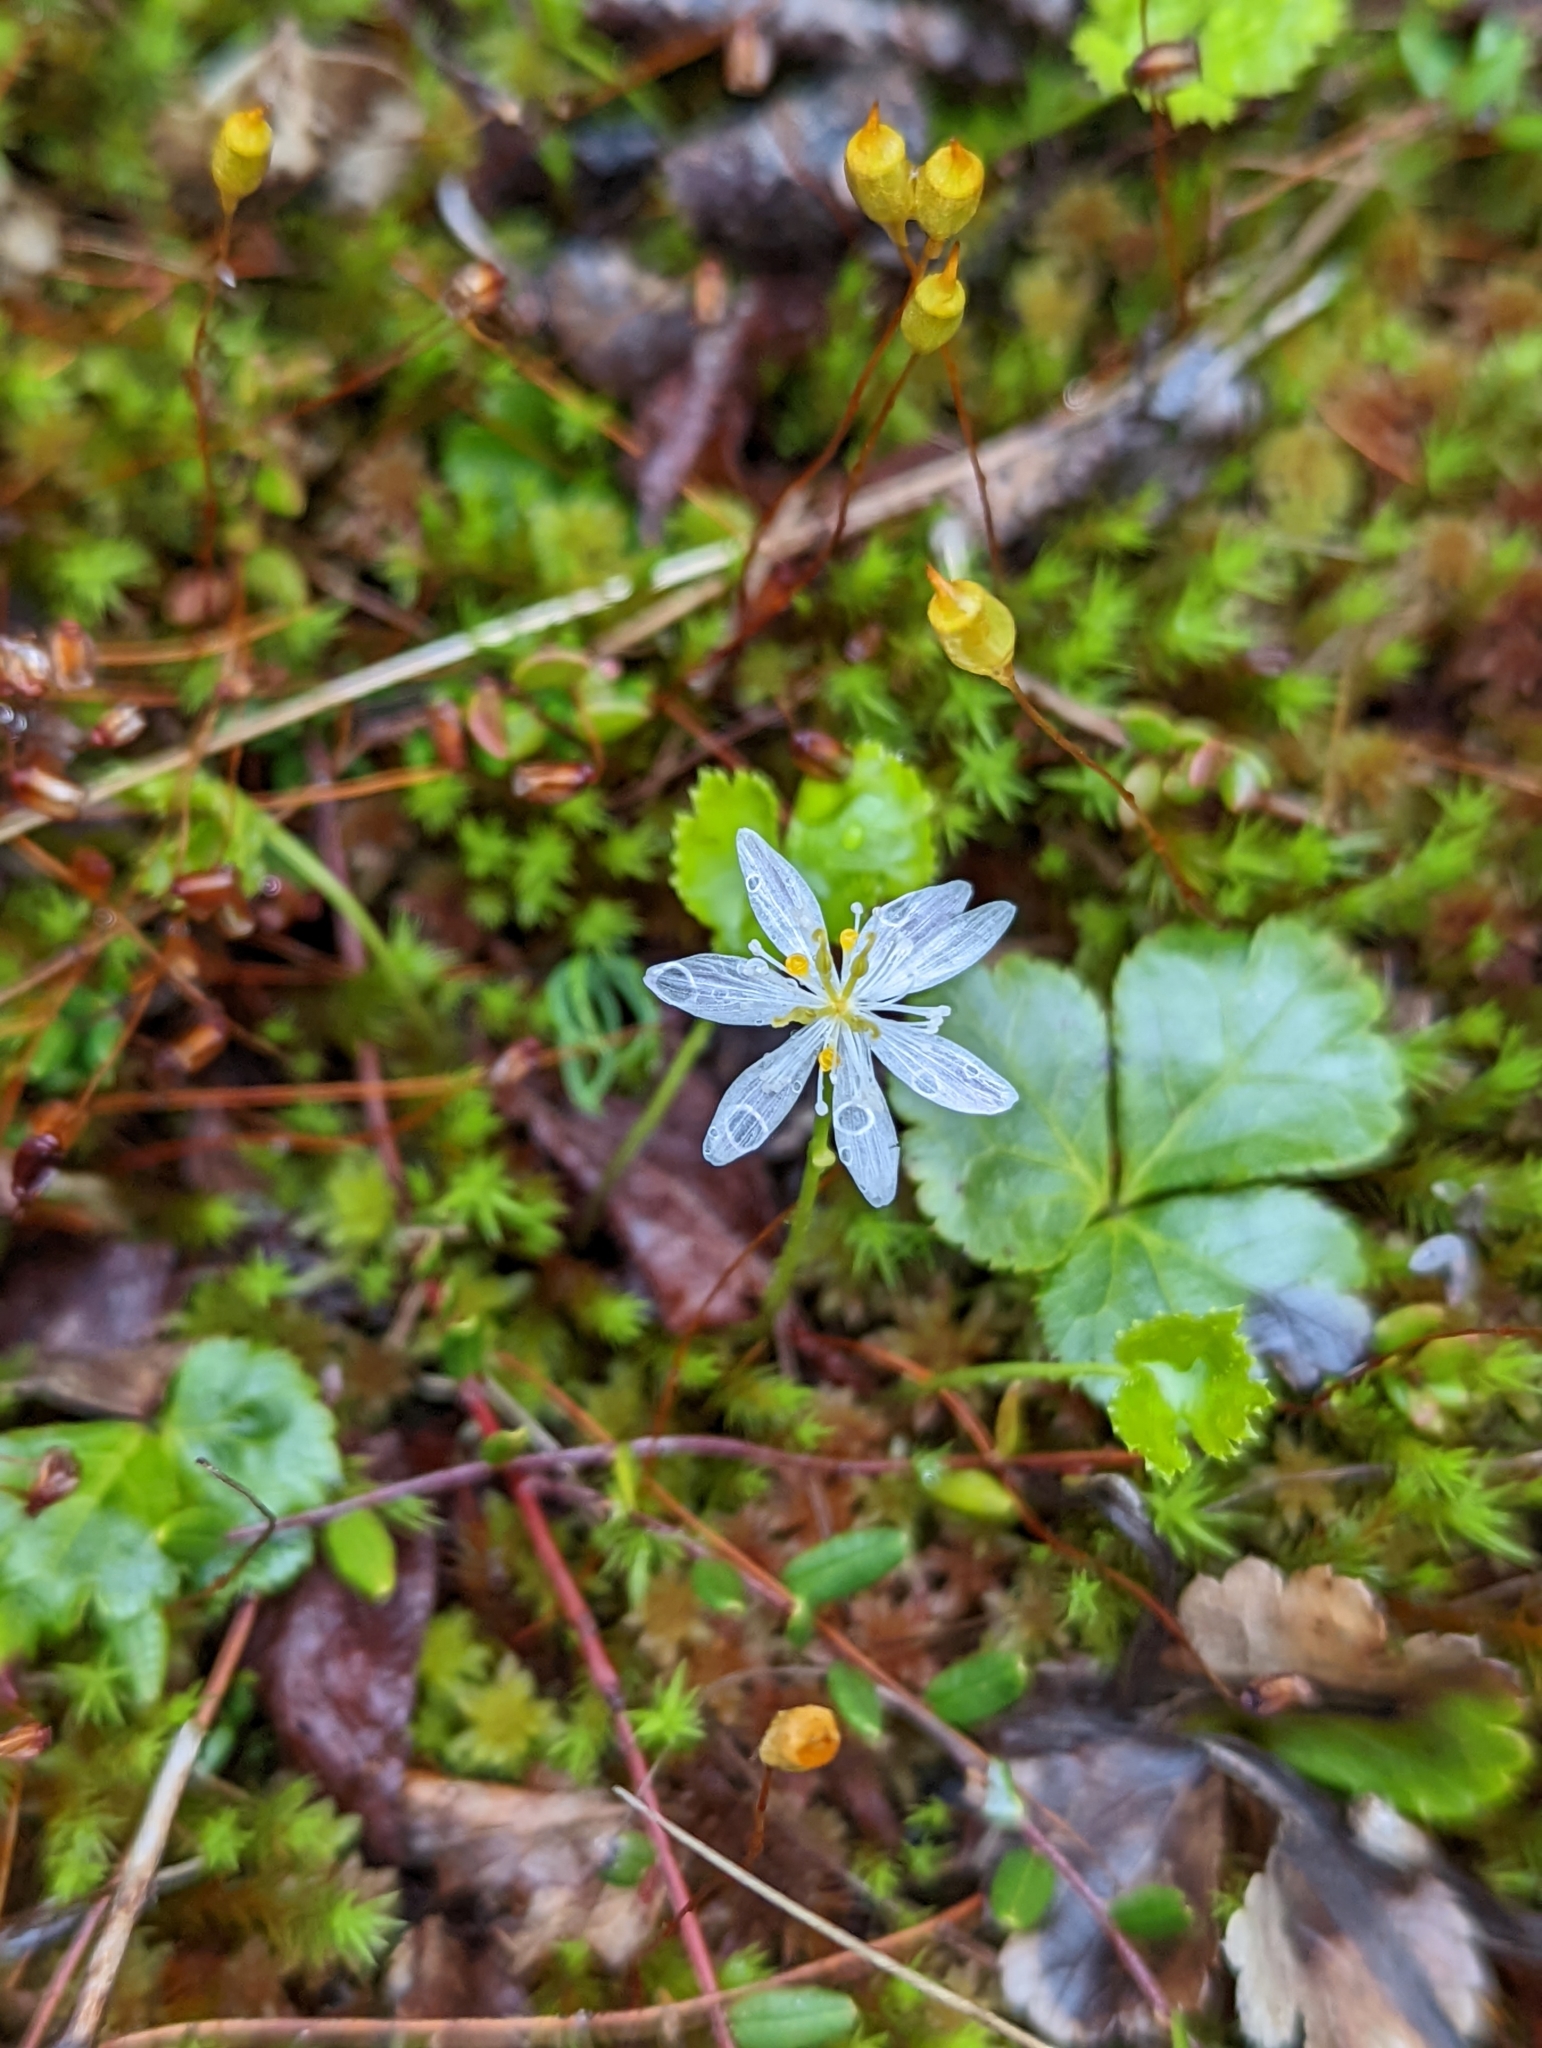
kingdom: Plantae
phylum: Tracheophyta
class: Magnoliopsida
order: Ranunculales
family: Ranunculaceae
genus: Coptis
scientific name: Coptis trifolia
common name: Canker-root
